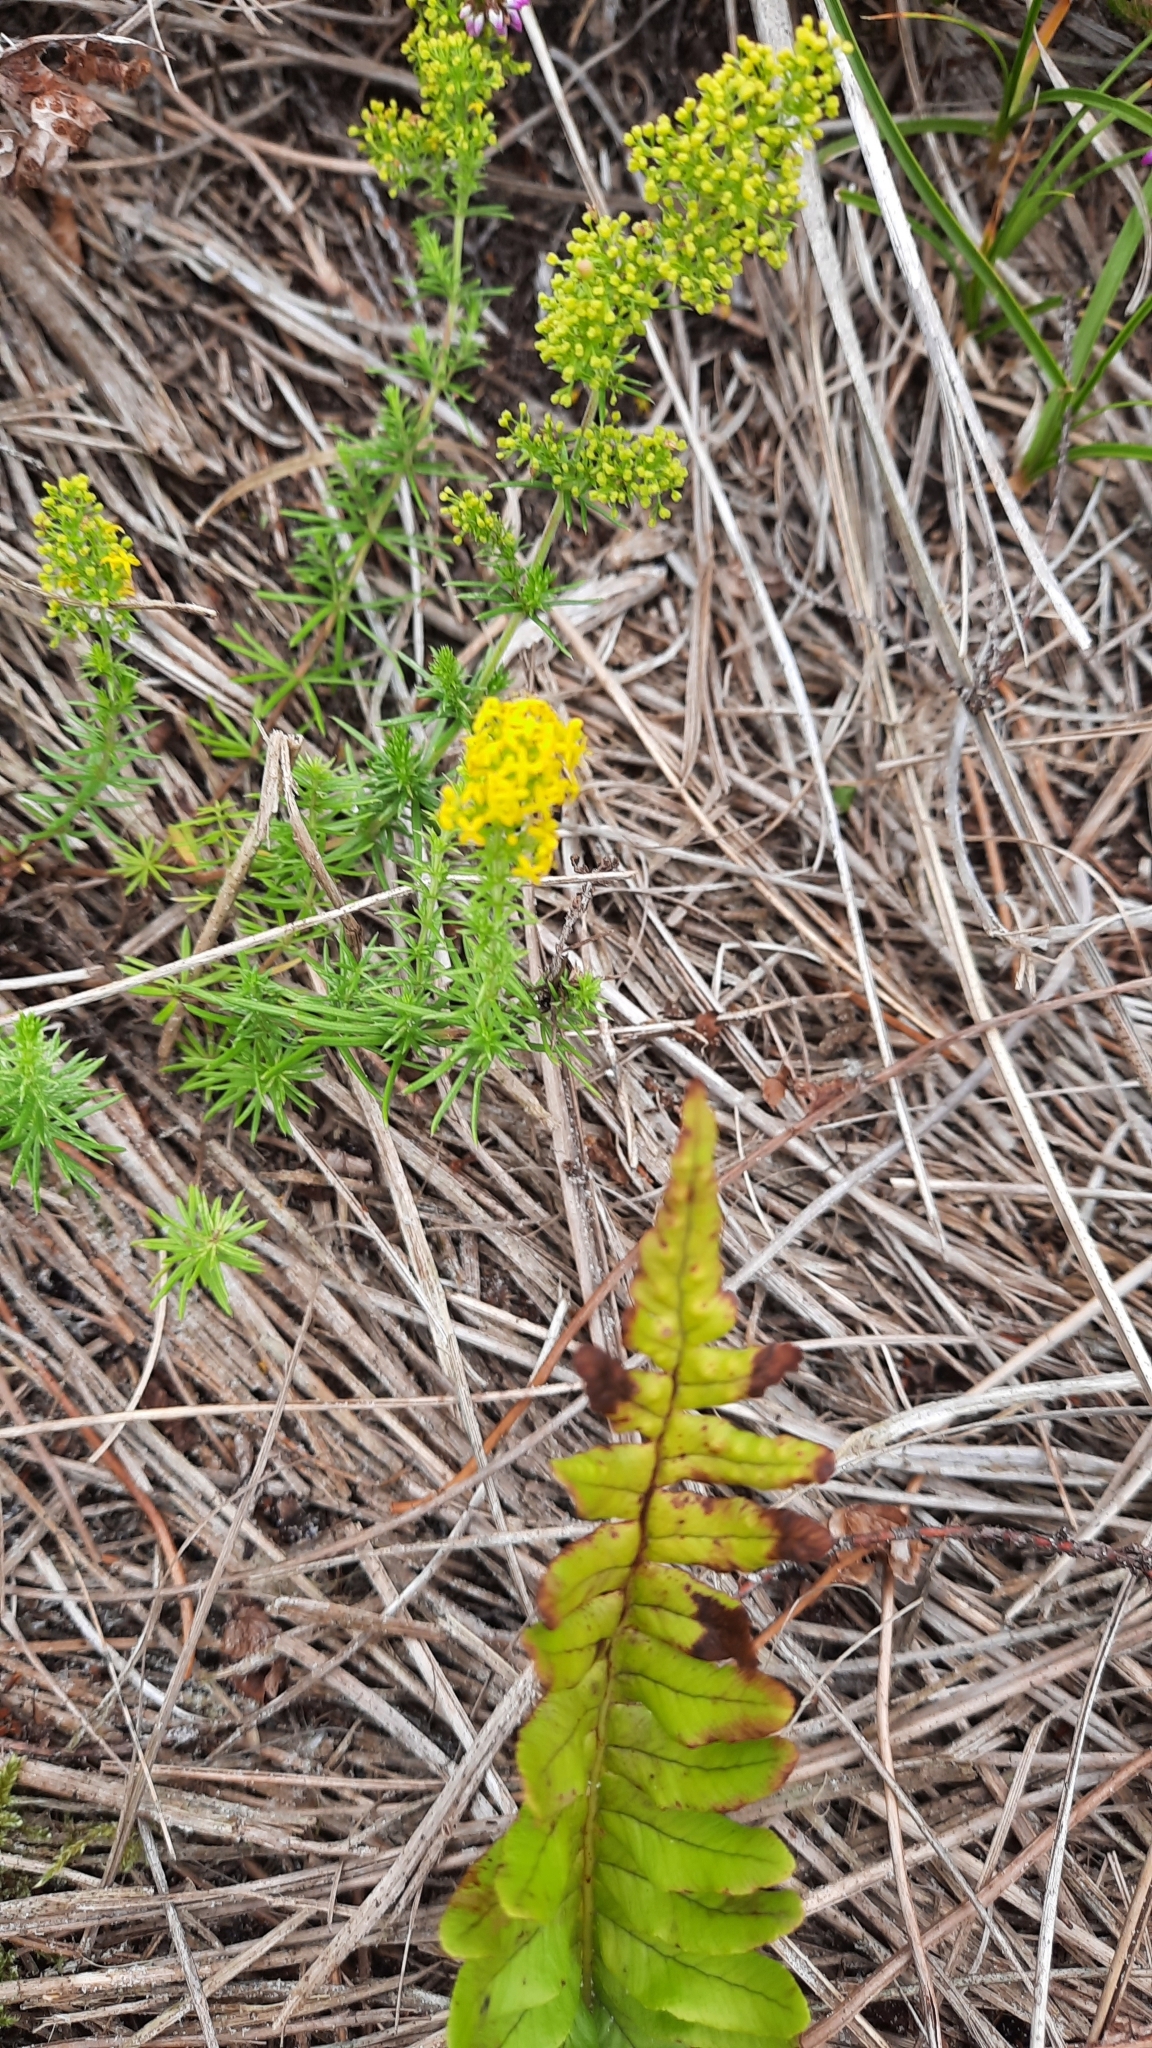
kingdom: Plantae
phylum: Tracheophyta
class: Magnoliopsida
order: Gentianales
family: Rubiaceae
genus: Galium
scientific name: Galium verum
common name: Lady's bedstraw
